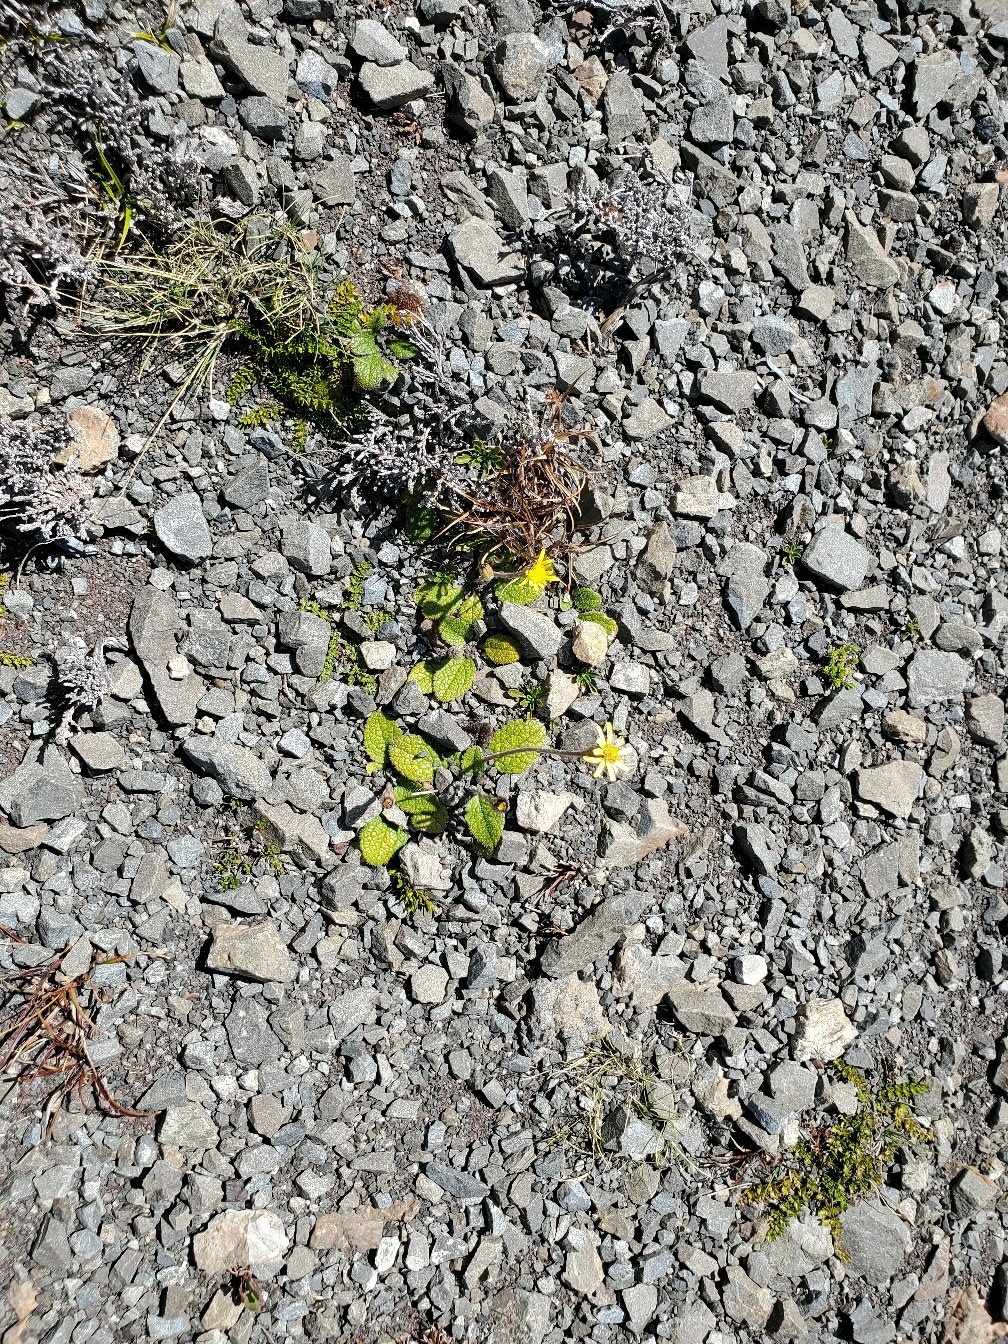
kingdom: Plantae
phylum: Tracheophyta
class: Magnoliopsida
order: Asterales
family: Asteraceae
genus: Brachyglottis
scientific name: Brachyglottis bellidioides
